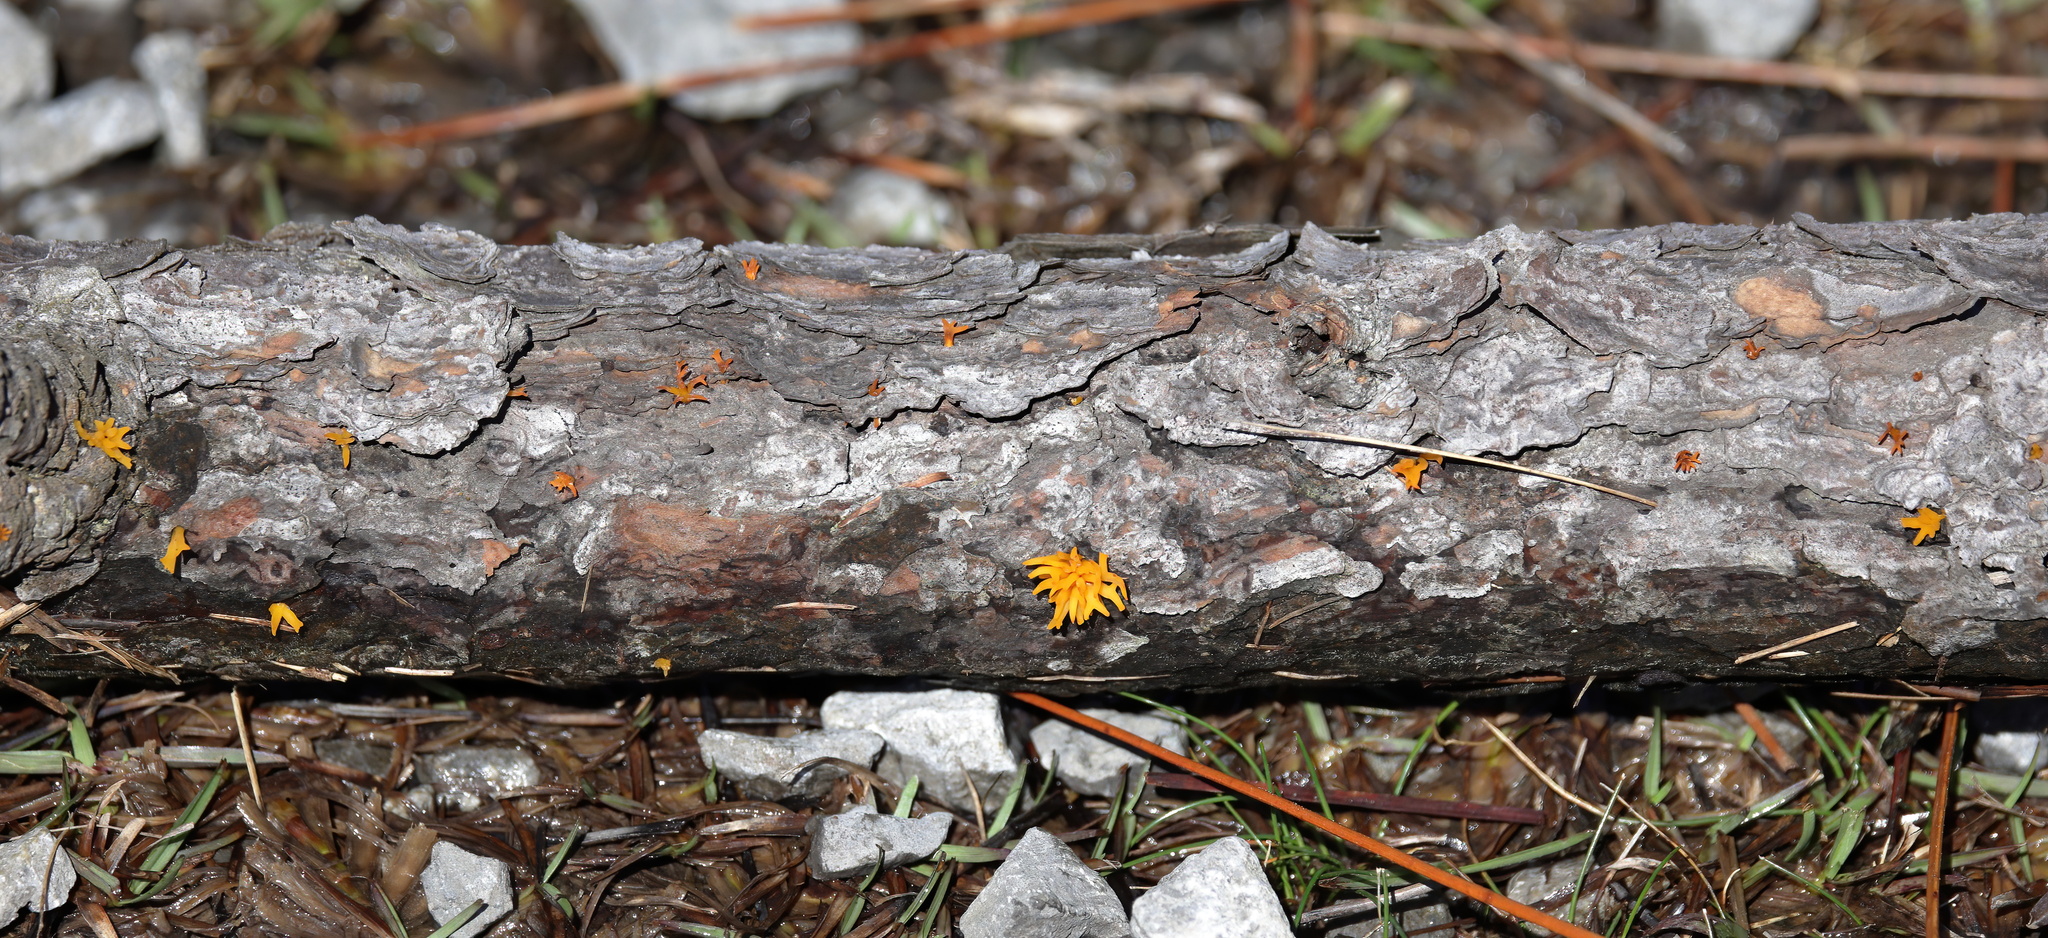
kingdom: Fungi
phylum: Basidiomycota
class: Dacrymycetes
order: Dacrymycetales
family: Dacrymycetaceae
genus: Calocera
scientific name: Calocera cornea
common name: Small stagshorn
